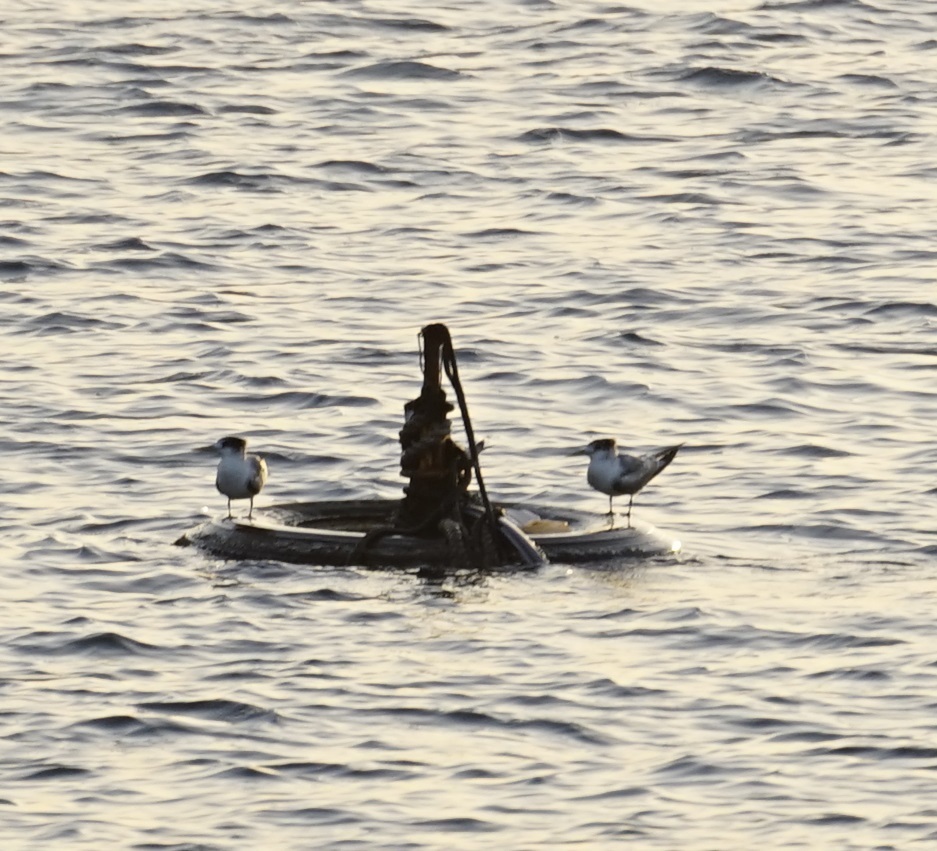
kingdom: Animalia
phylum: Chordata
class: Aves
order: Charadriiformes
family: Laridae
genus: Thalasseus
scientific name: Thalasseus bergii
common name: Greater crested tern
